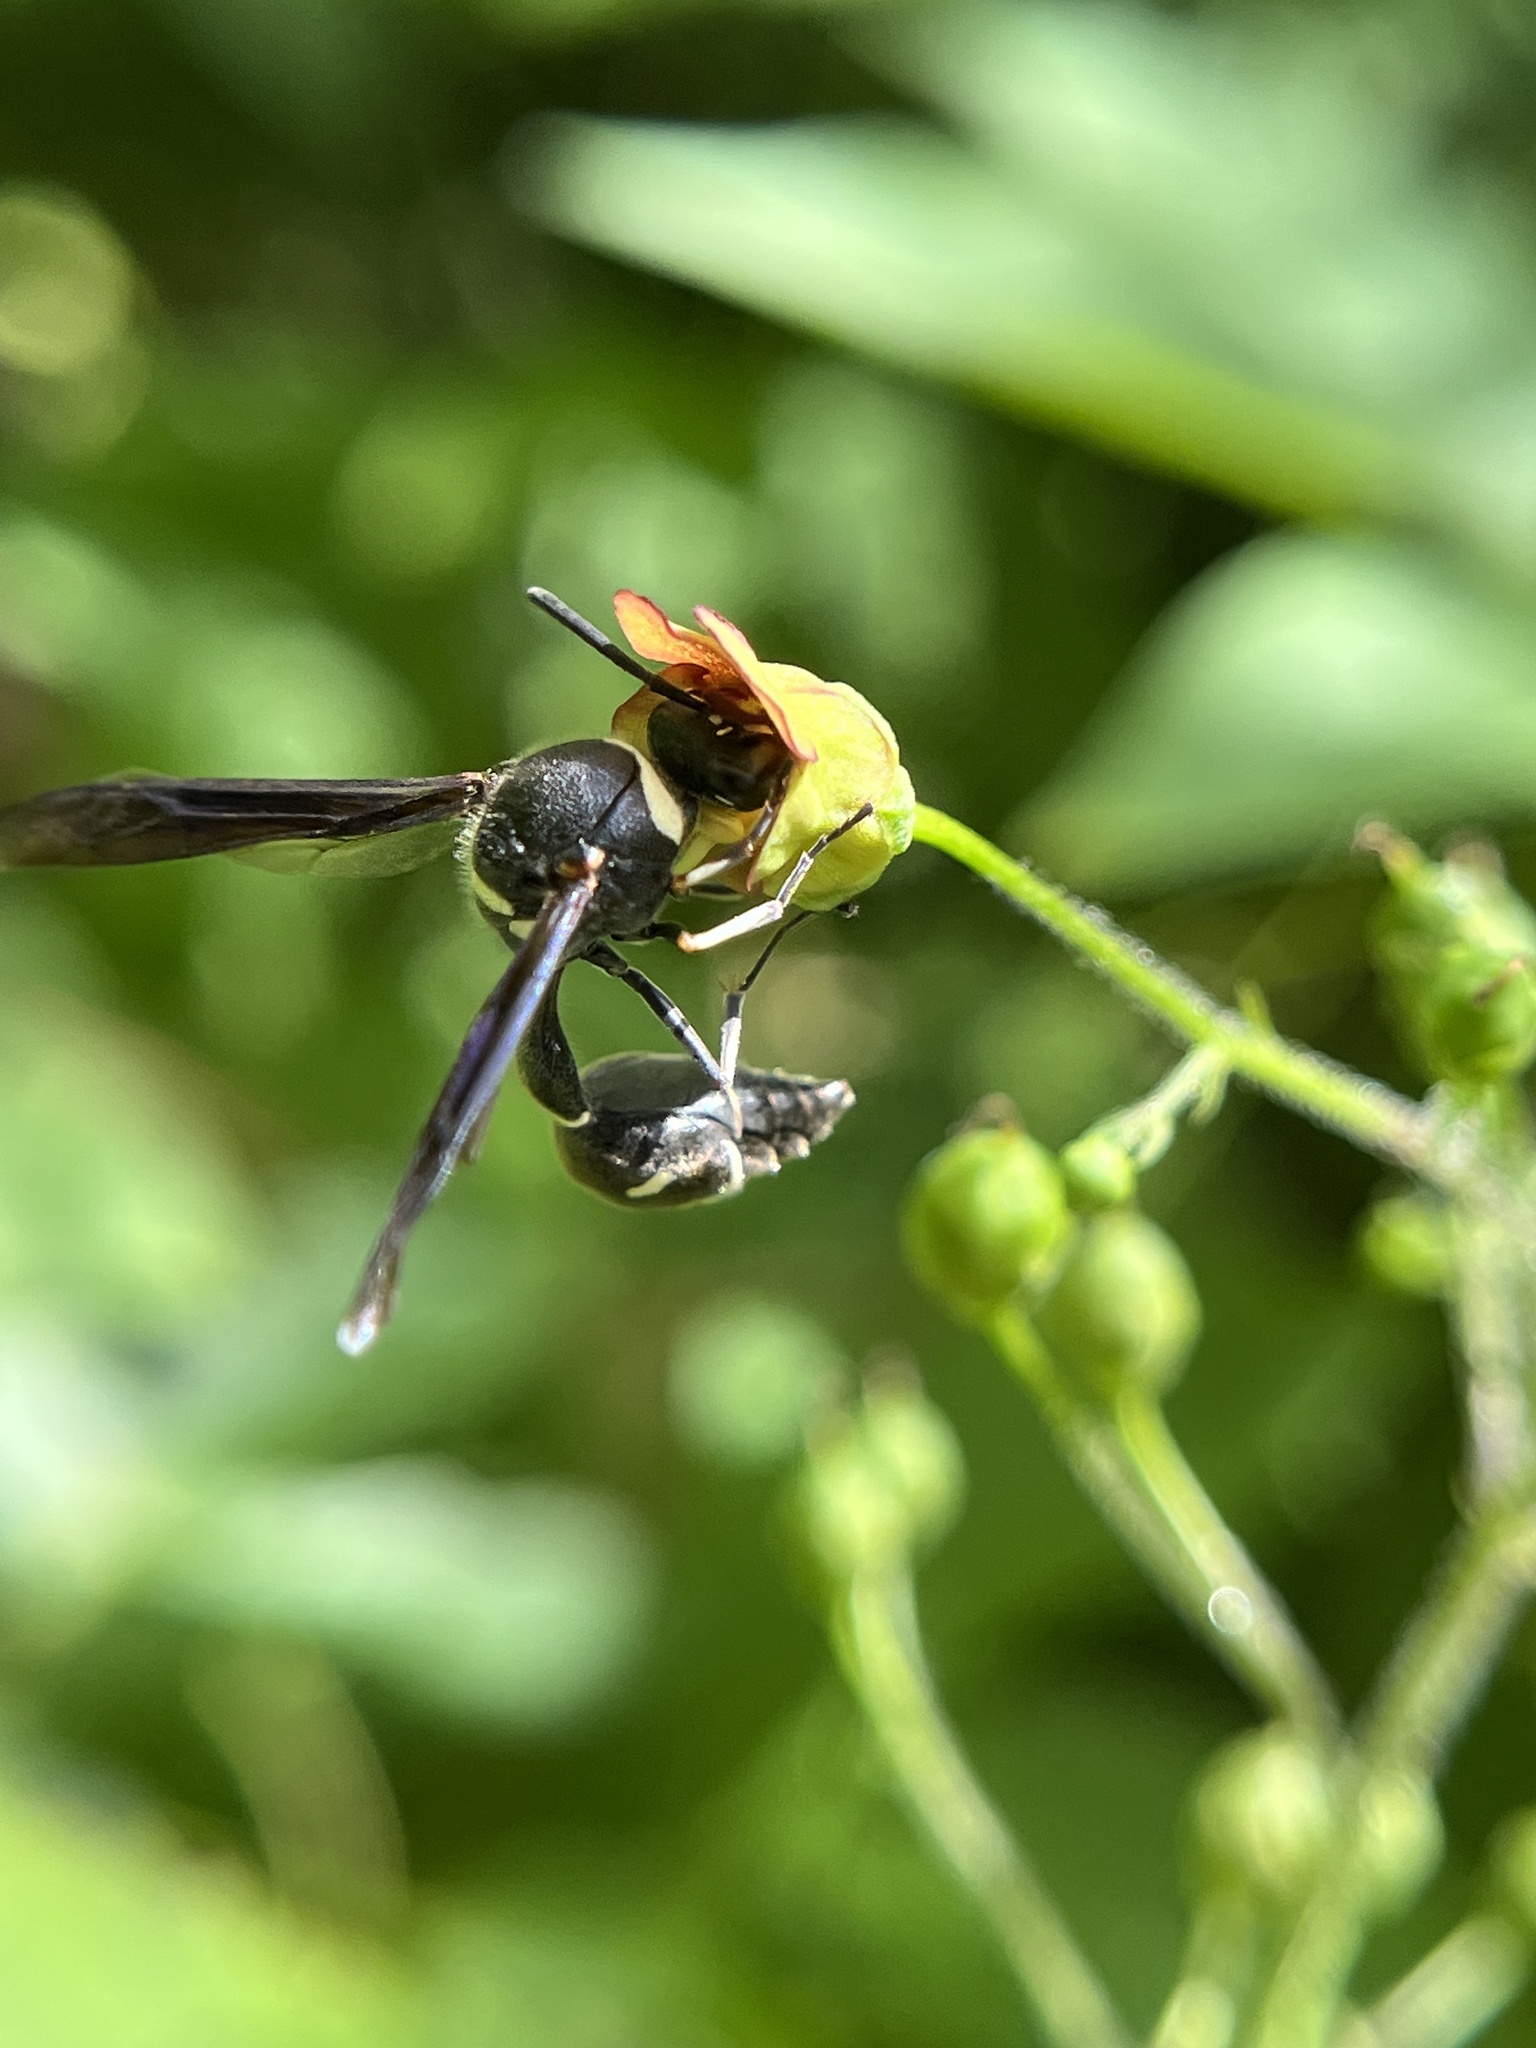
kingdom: Animalia
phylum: Arthropoda
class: Insecta
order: Hymenoptera
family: Vespidae
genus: Eumenes
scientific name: Eumenes fraternus
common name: Fraternal potter wasp
